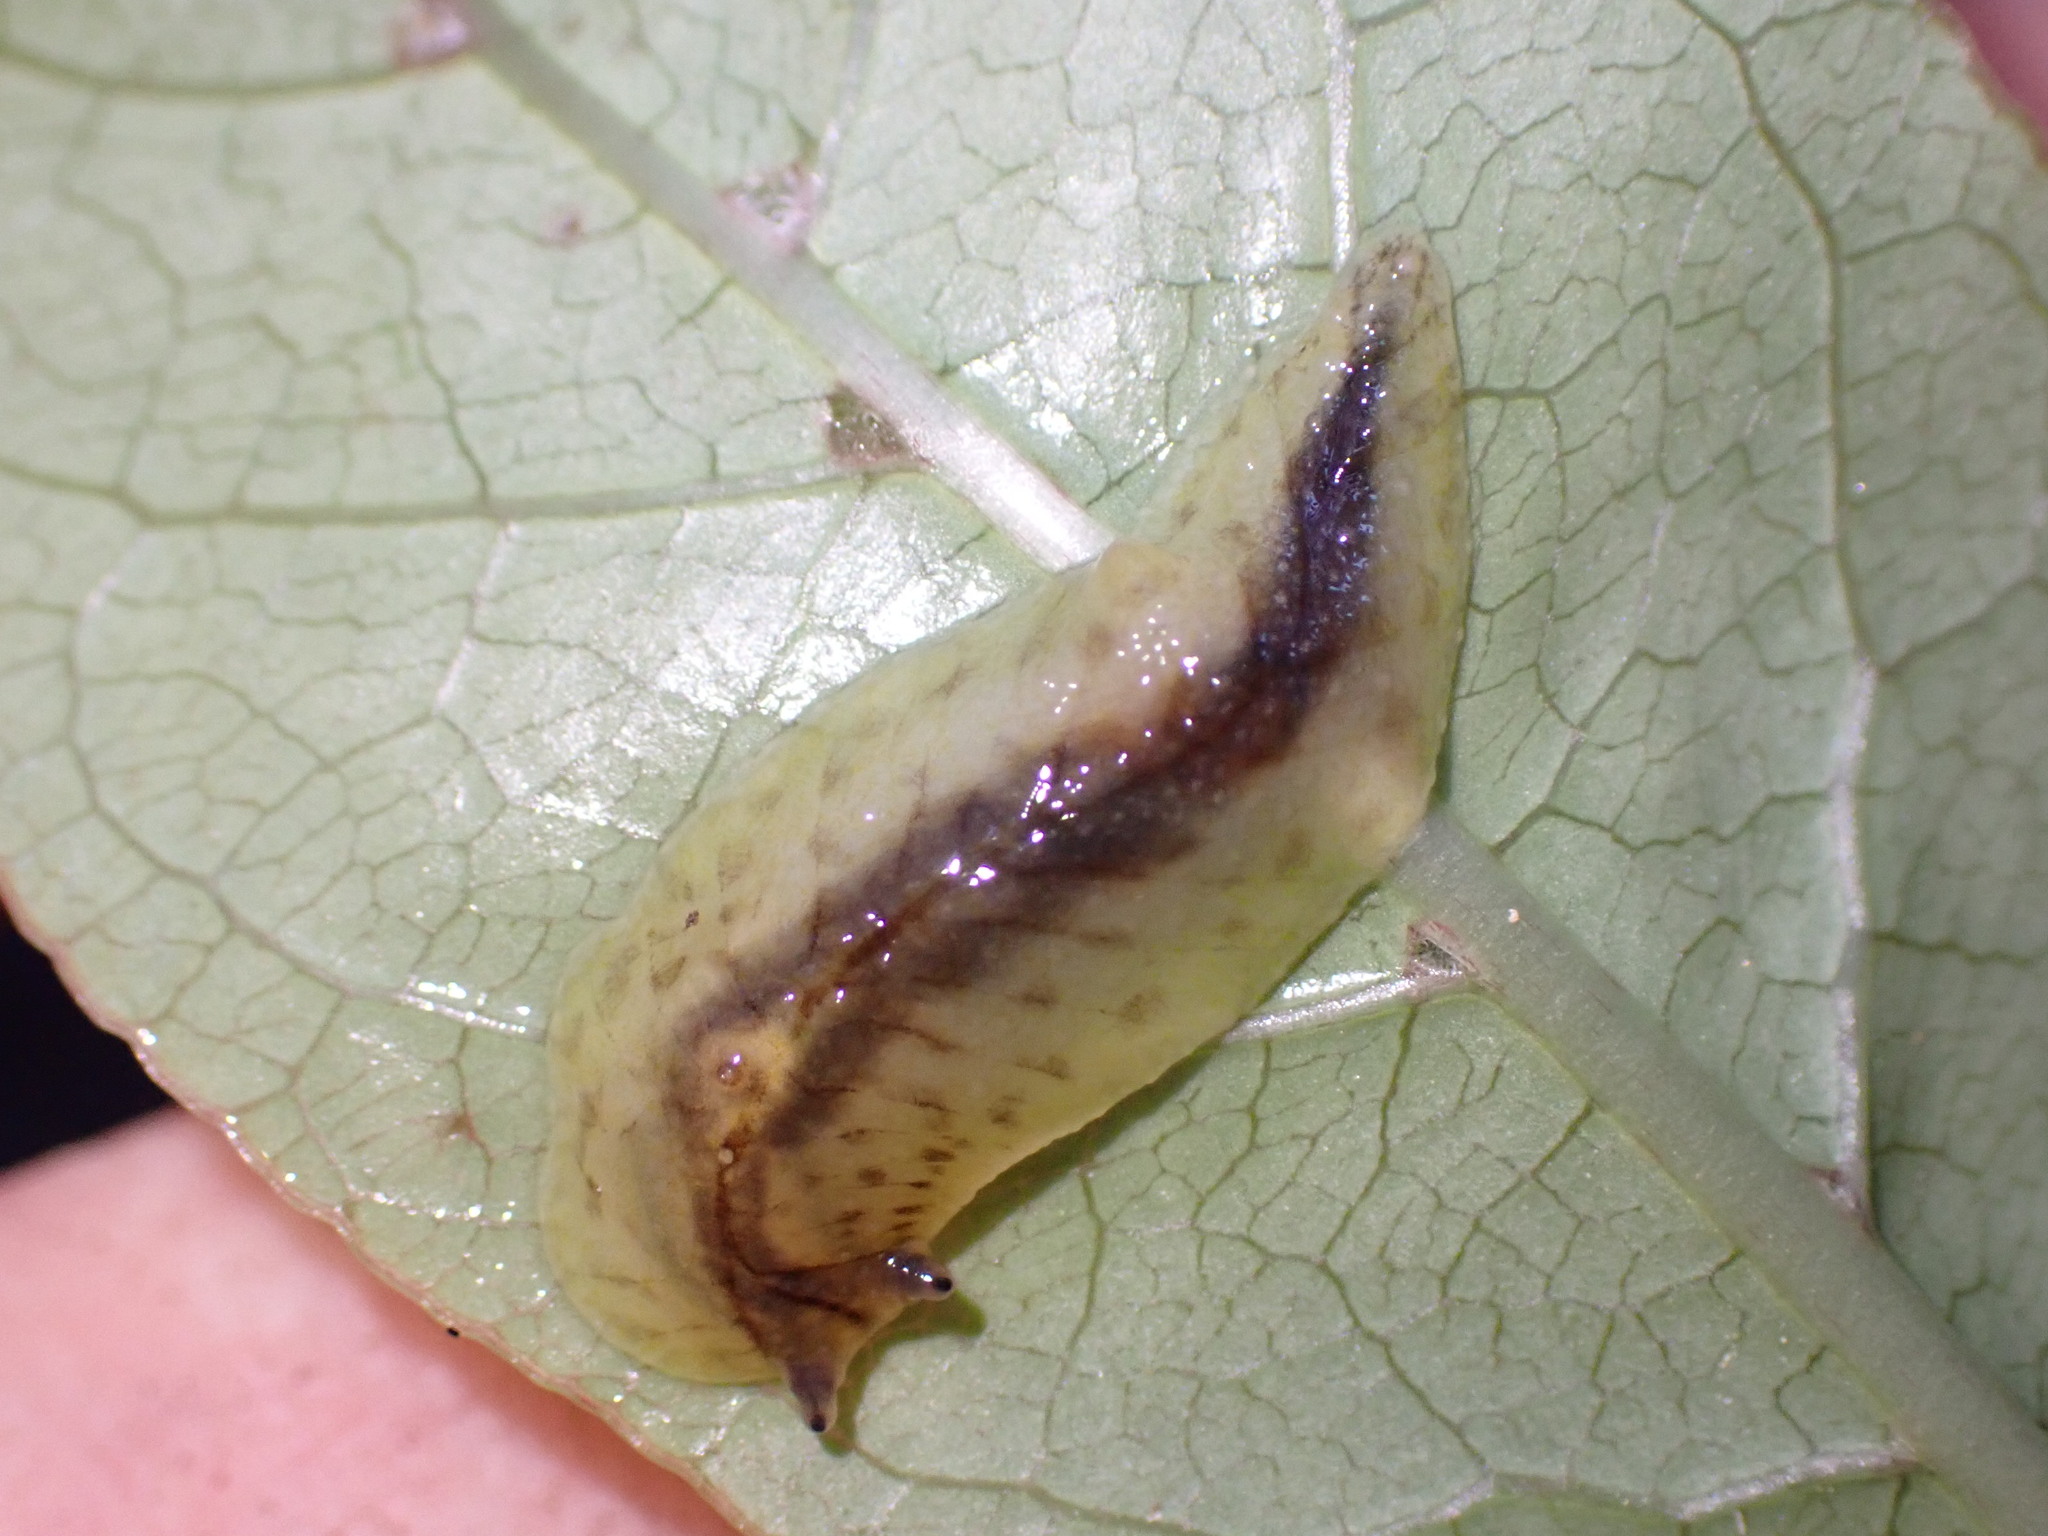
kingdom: Animalia
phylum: Mollusca
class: Gastropoda
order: Stylommatophora
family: Athoracophoridae
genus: Athoracophorus
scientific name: Athoracophorus
